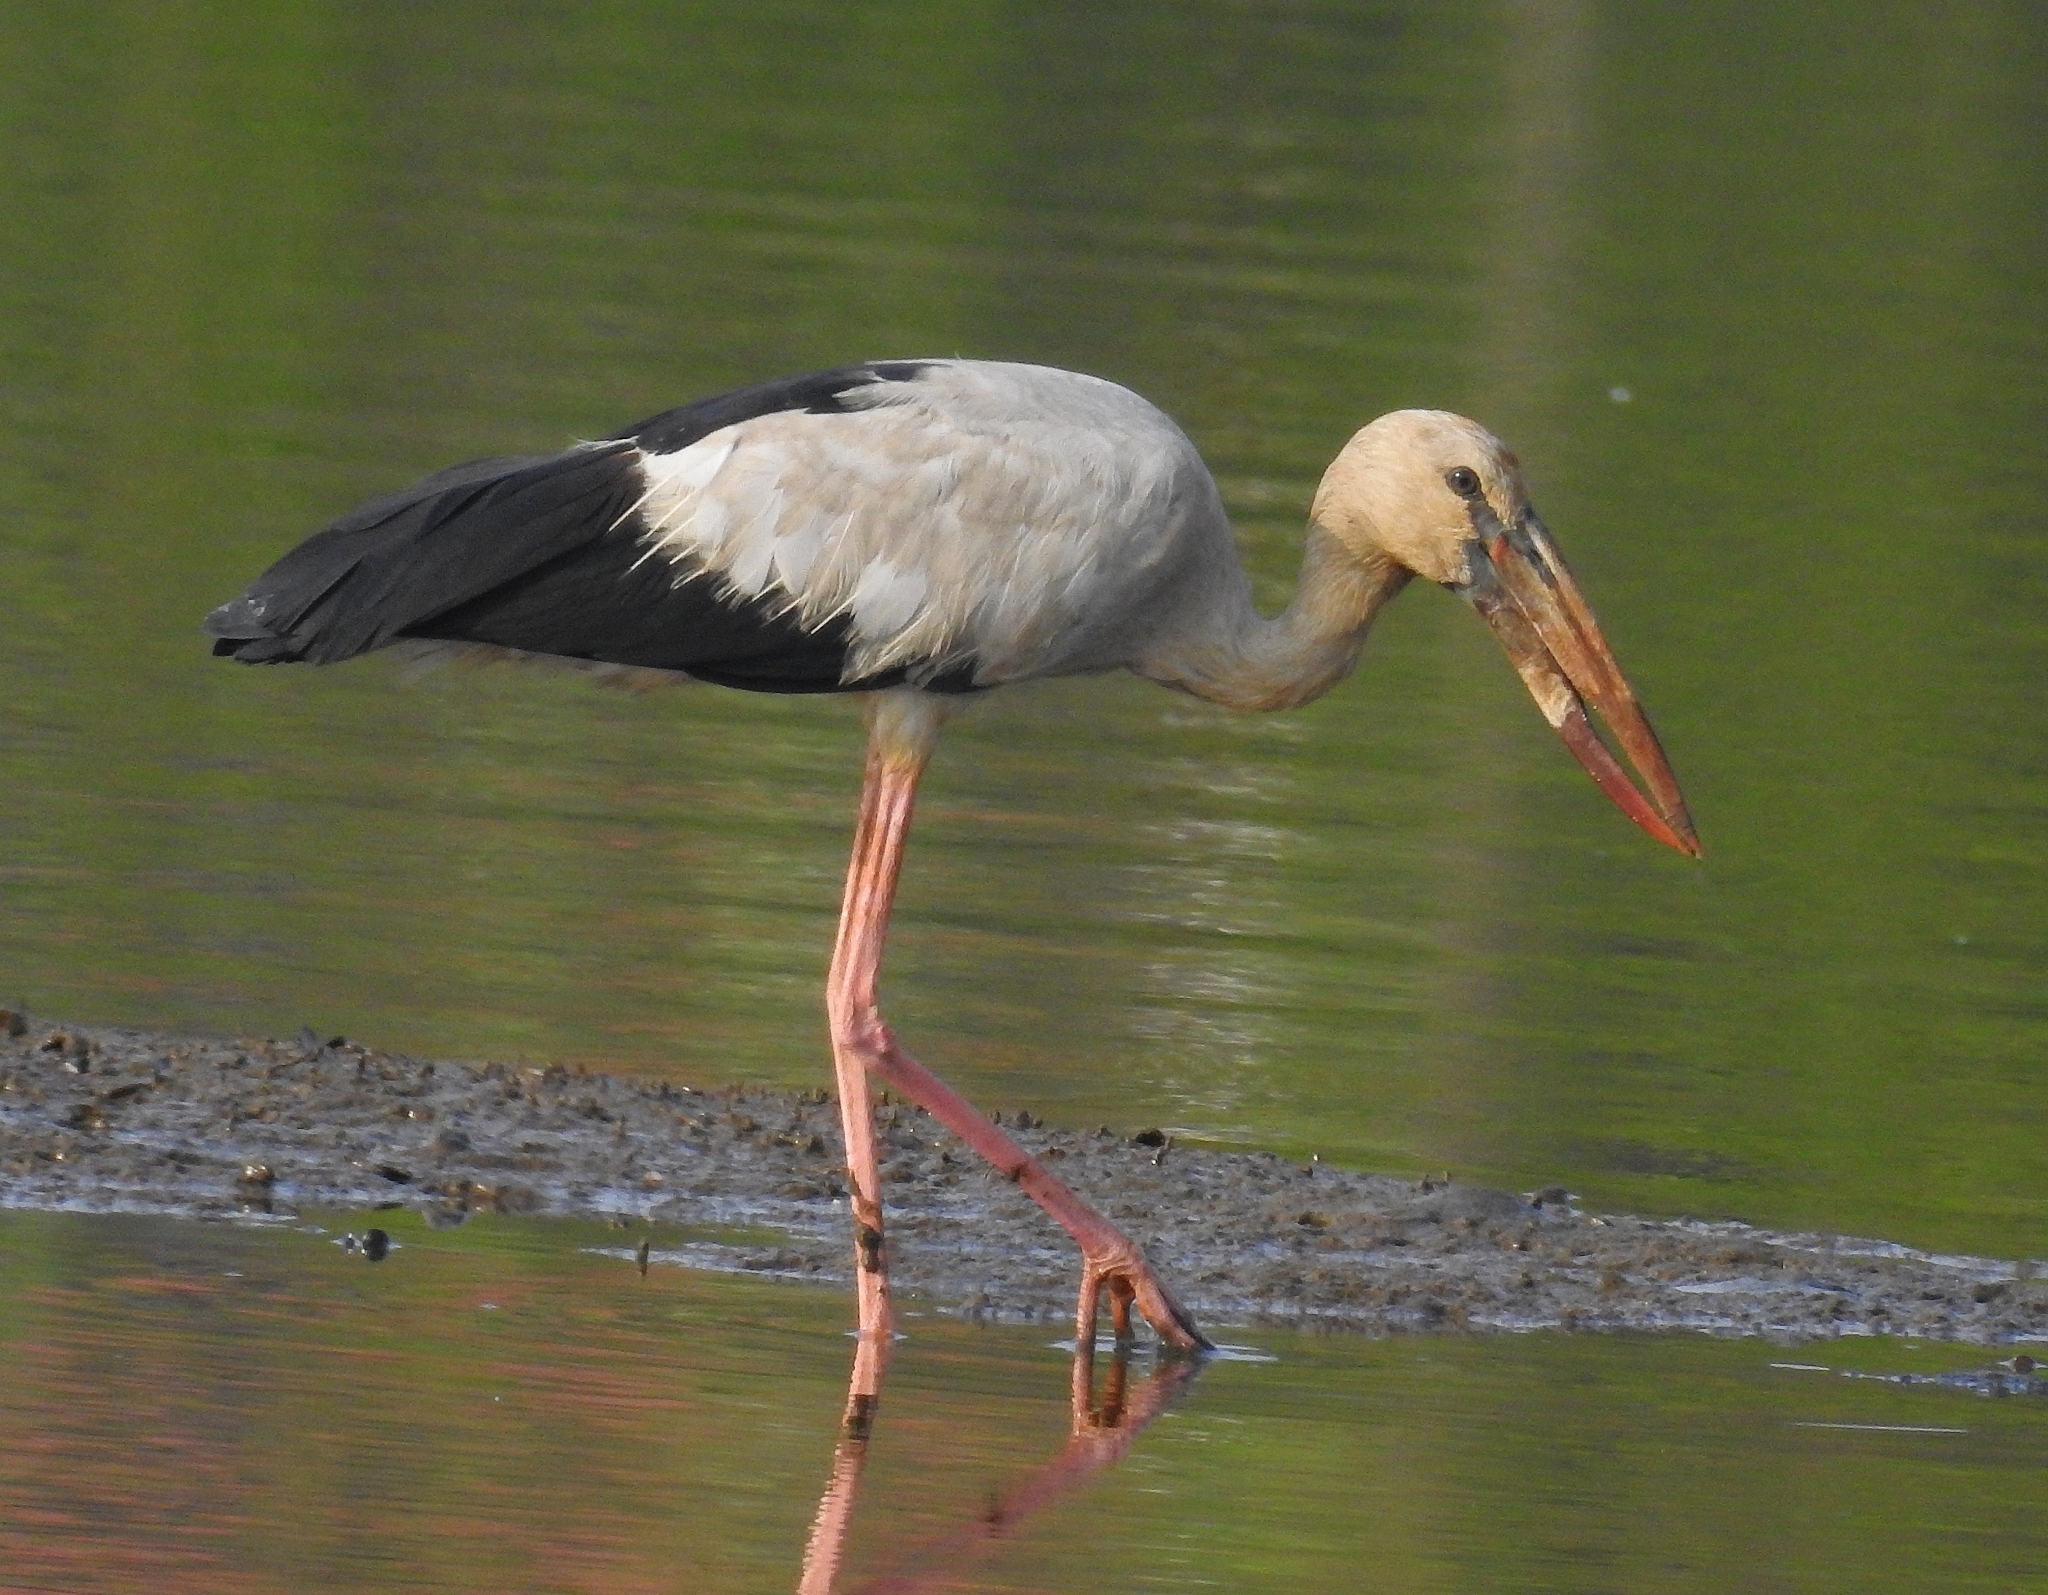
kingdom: Animalia
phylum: Chordata
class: Aves
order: Ciconiiformes
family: Ciconiidae
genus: Anastomus
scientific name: Anastomus oscitans
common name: Asian openbill
